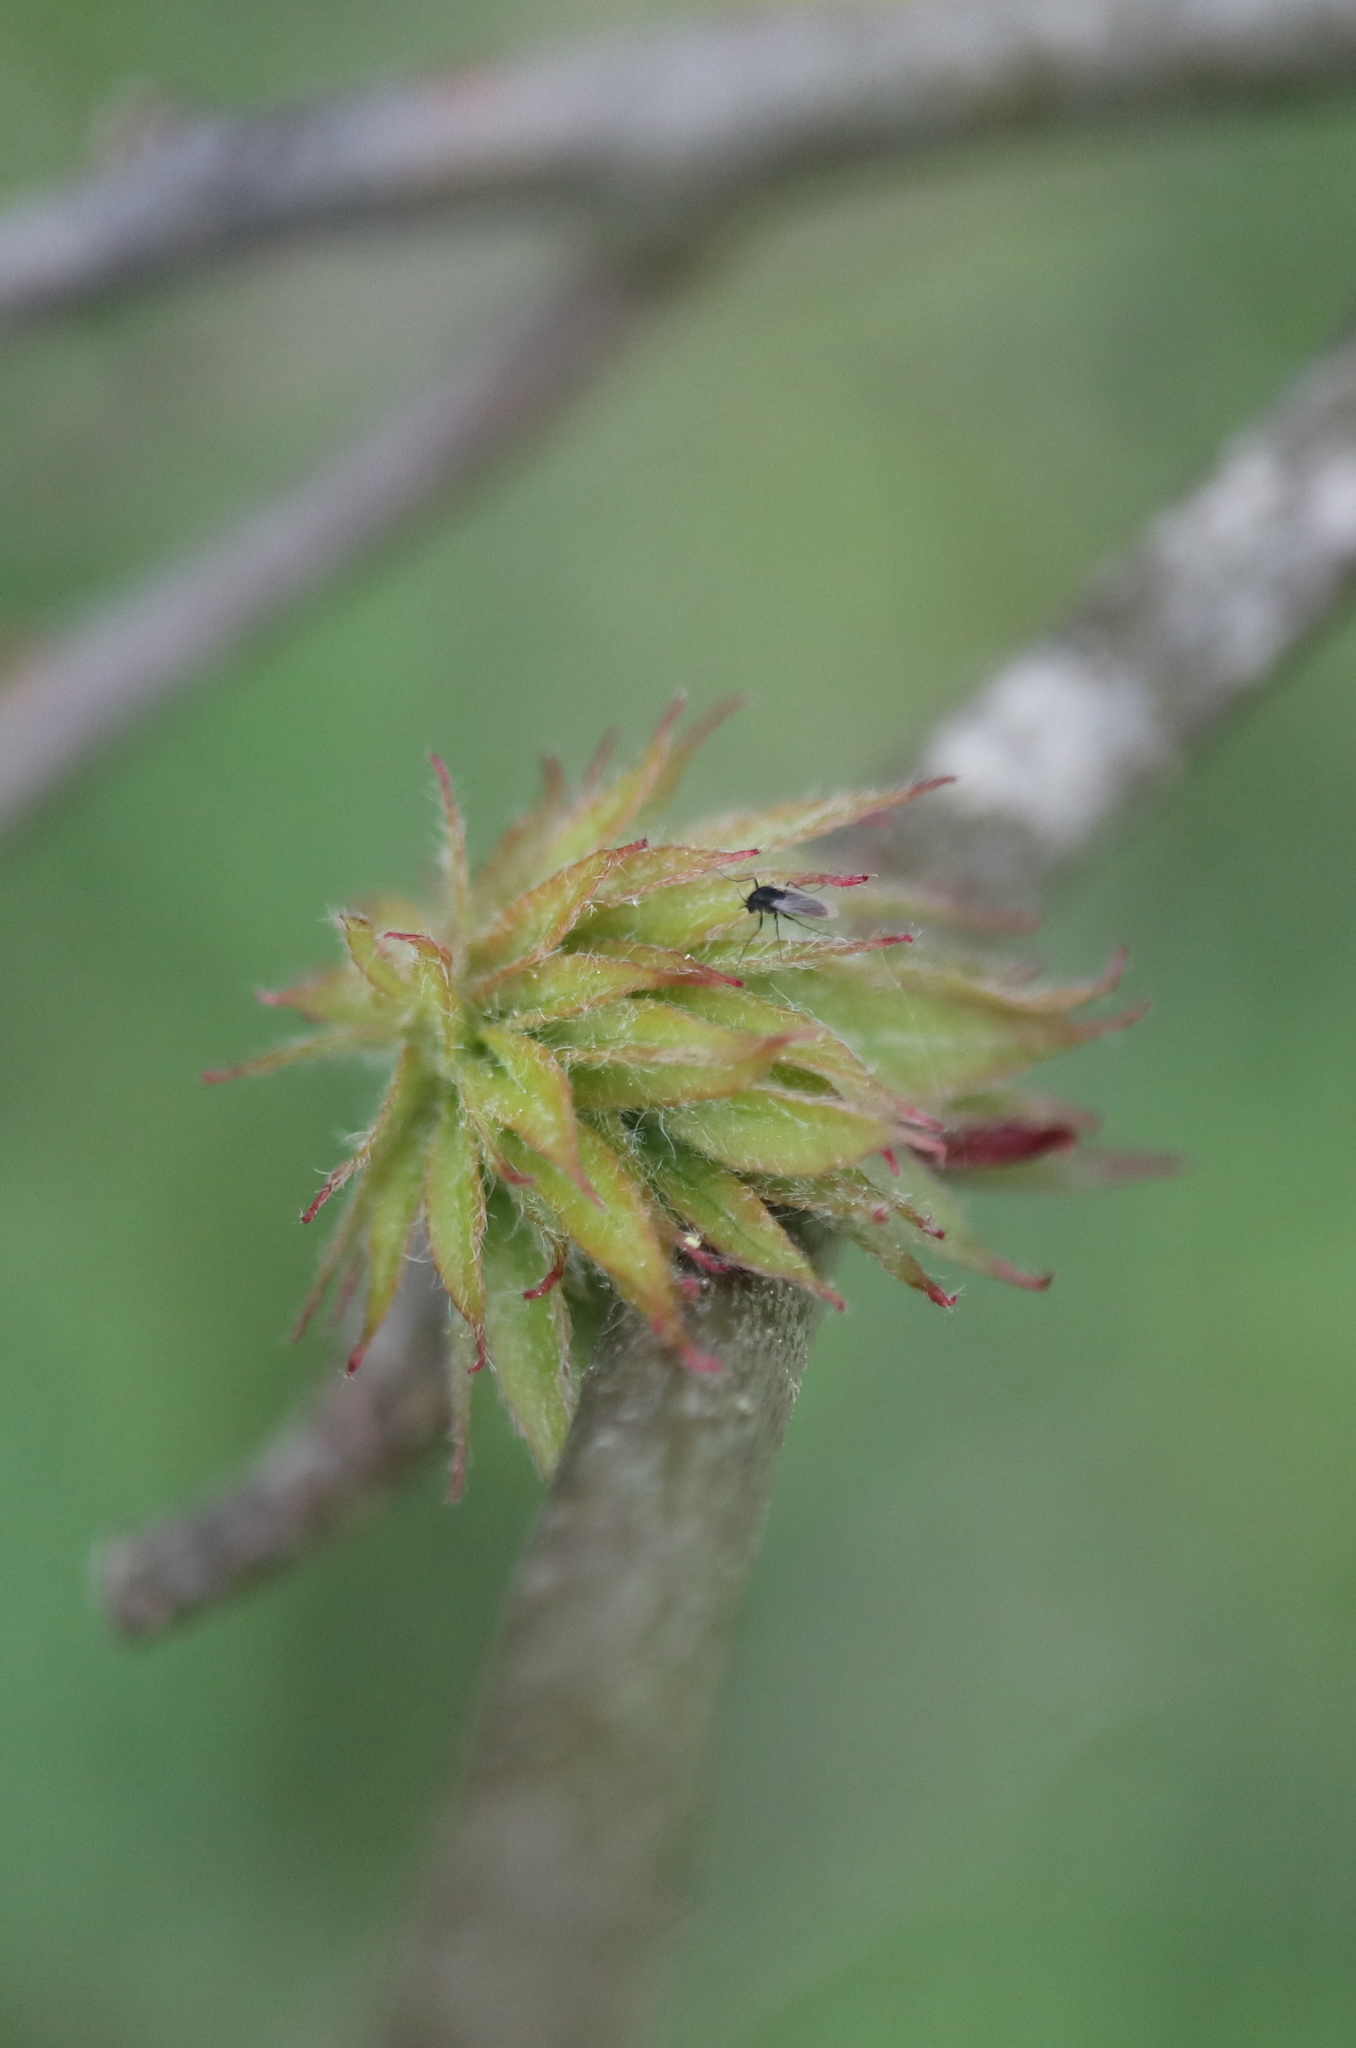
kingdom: Animalia
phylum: Arthropoda
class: Insecta
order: Hymenoptera
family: Cynipidae
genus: Dryocosmus
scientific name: Dryocosmus
